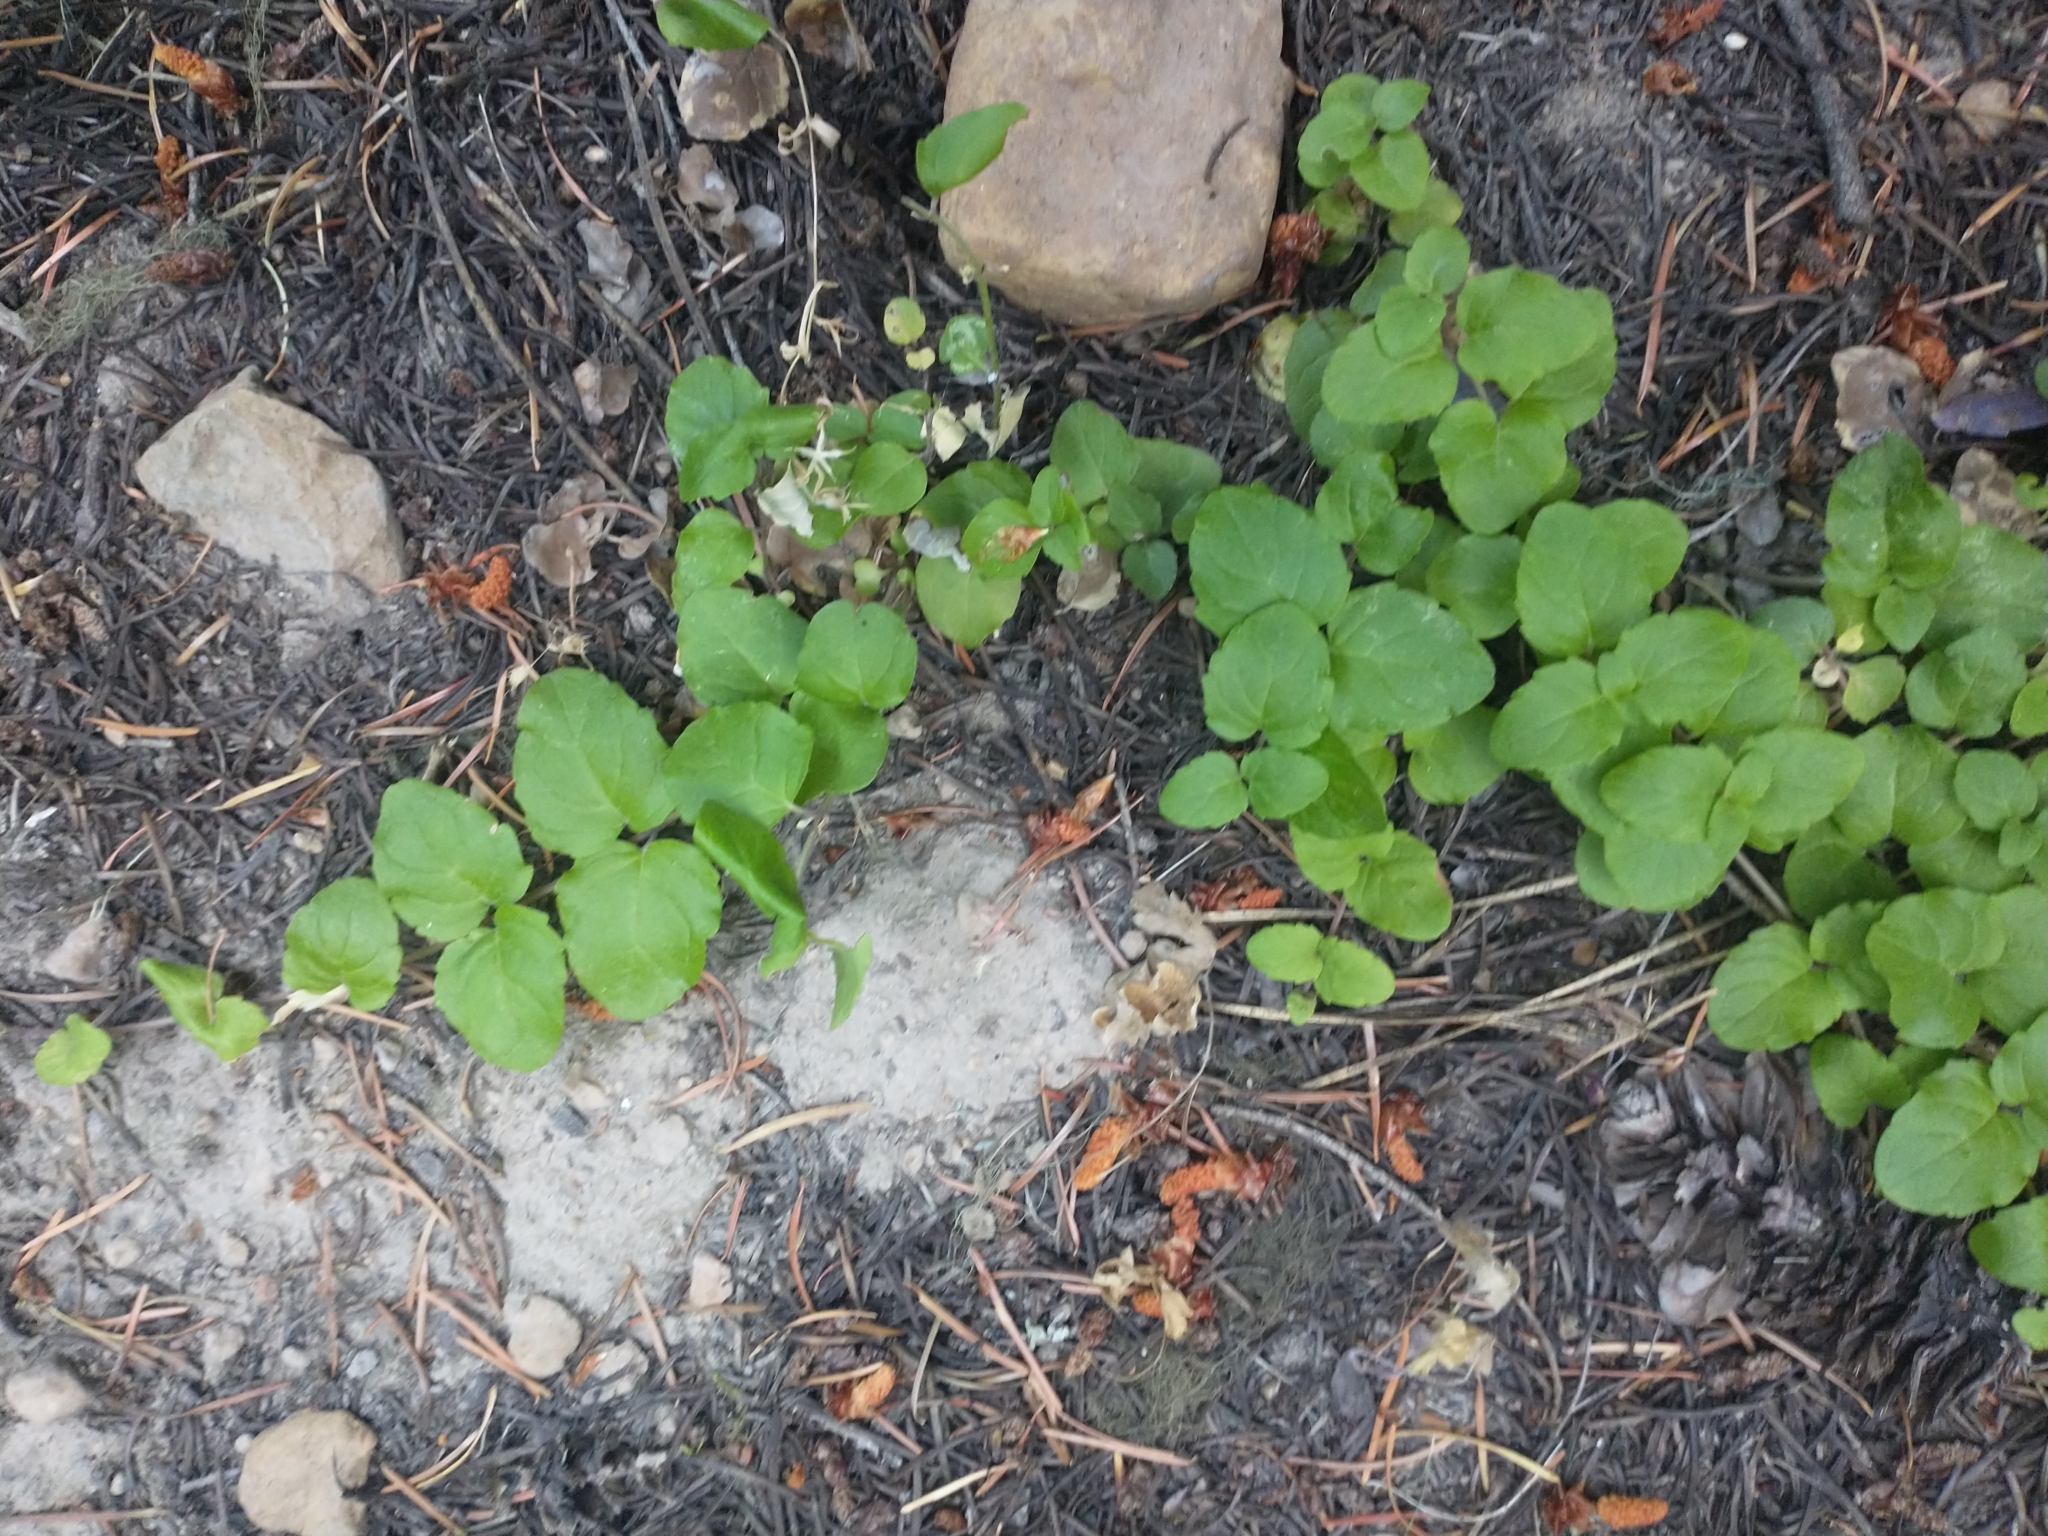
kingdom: Plantae
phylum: Tracheophyta
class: Magnoliopsida
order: Lamiales
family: Lamiaceae
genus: Micromeria
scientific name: Micromeria douglasii
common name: Yerba buena
